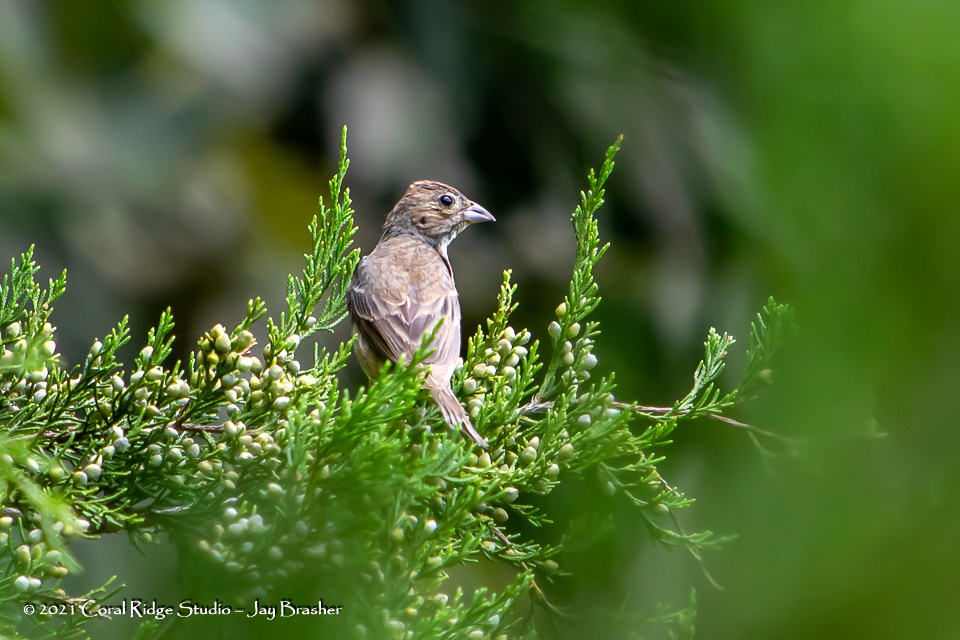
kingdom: Animalia
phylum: Chordata
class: Aves
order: Passeriformes
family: Cardinalidae
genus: Passerina
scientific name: Passerina cyanea
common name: Indigo bunting
